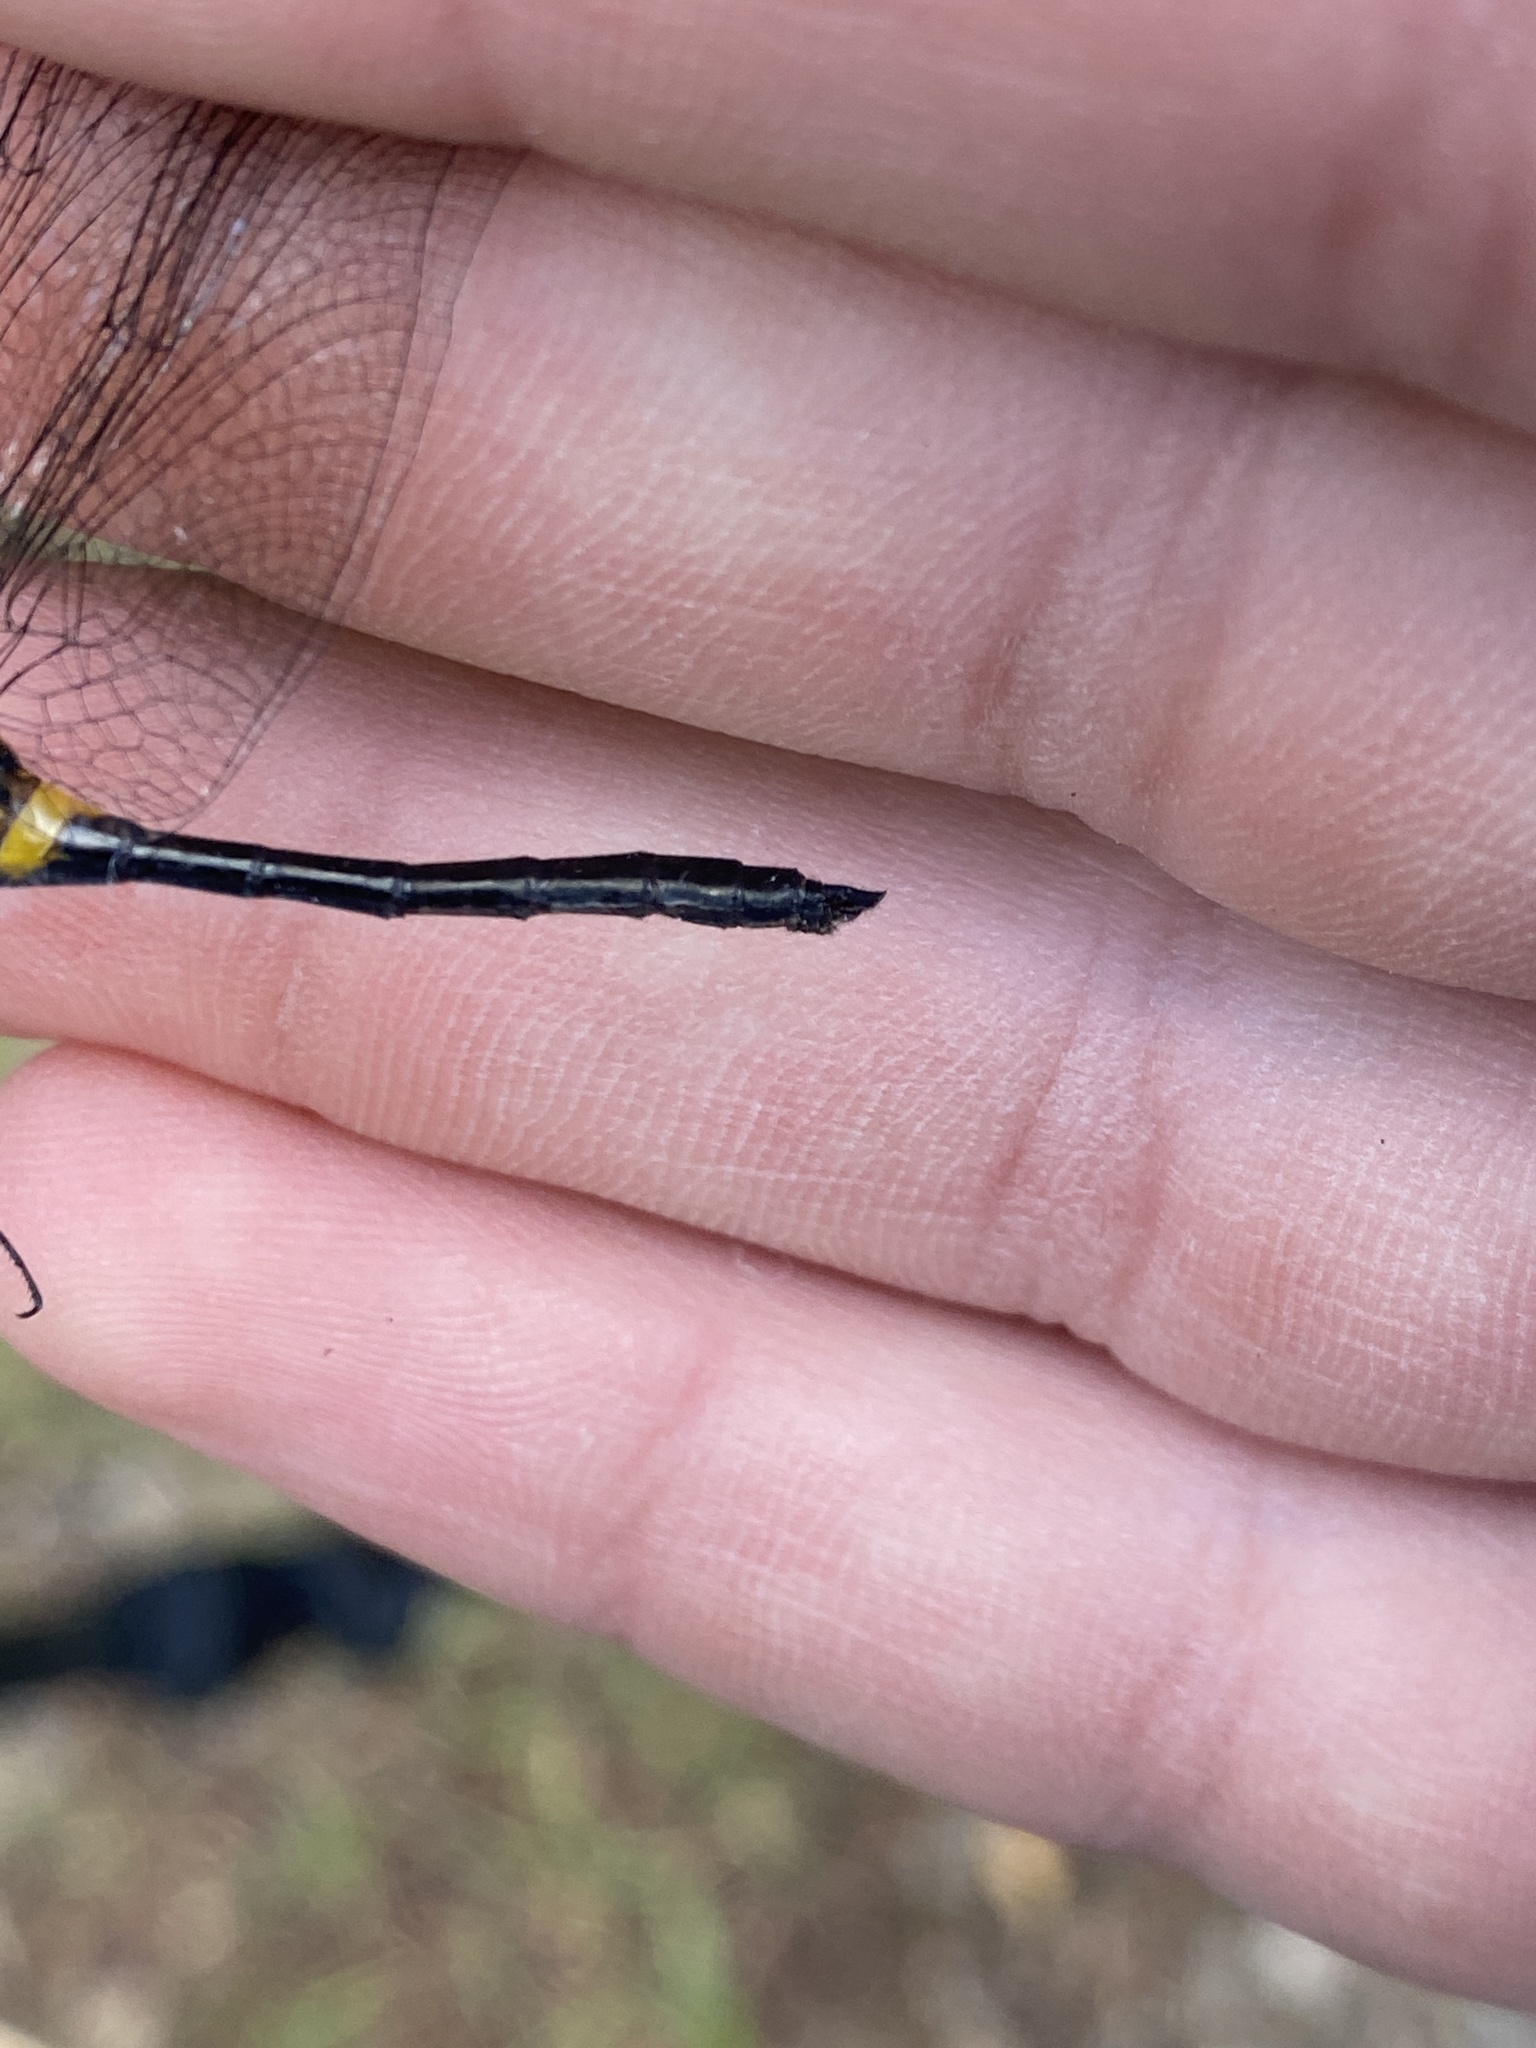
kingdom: Animalia
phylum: Arthropoda
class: Insecta
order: Odonata
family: Libellulidae
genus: Leucorrhinia
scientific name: Leucorrhinia glacialis
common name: Crimson-ringed whiteface
